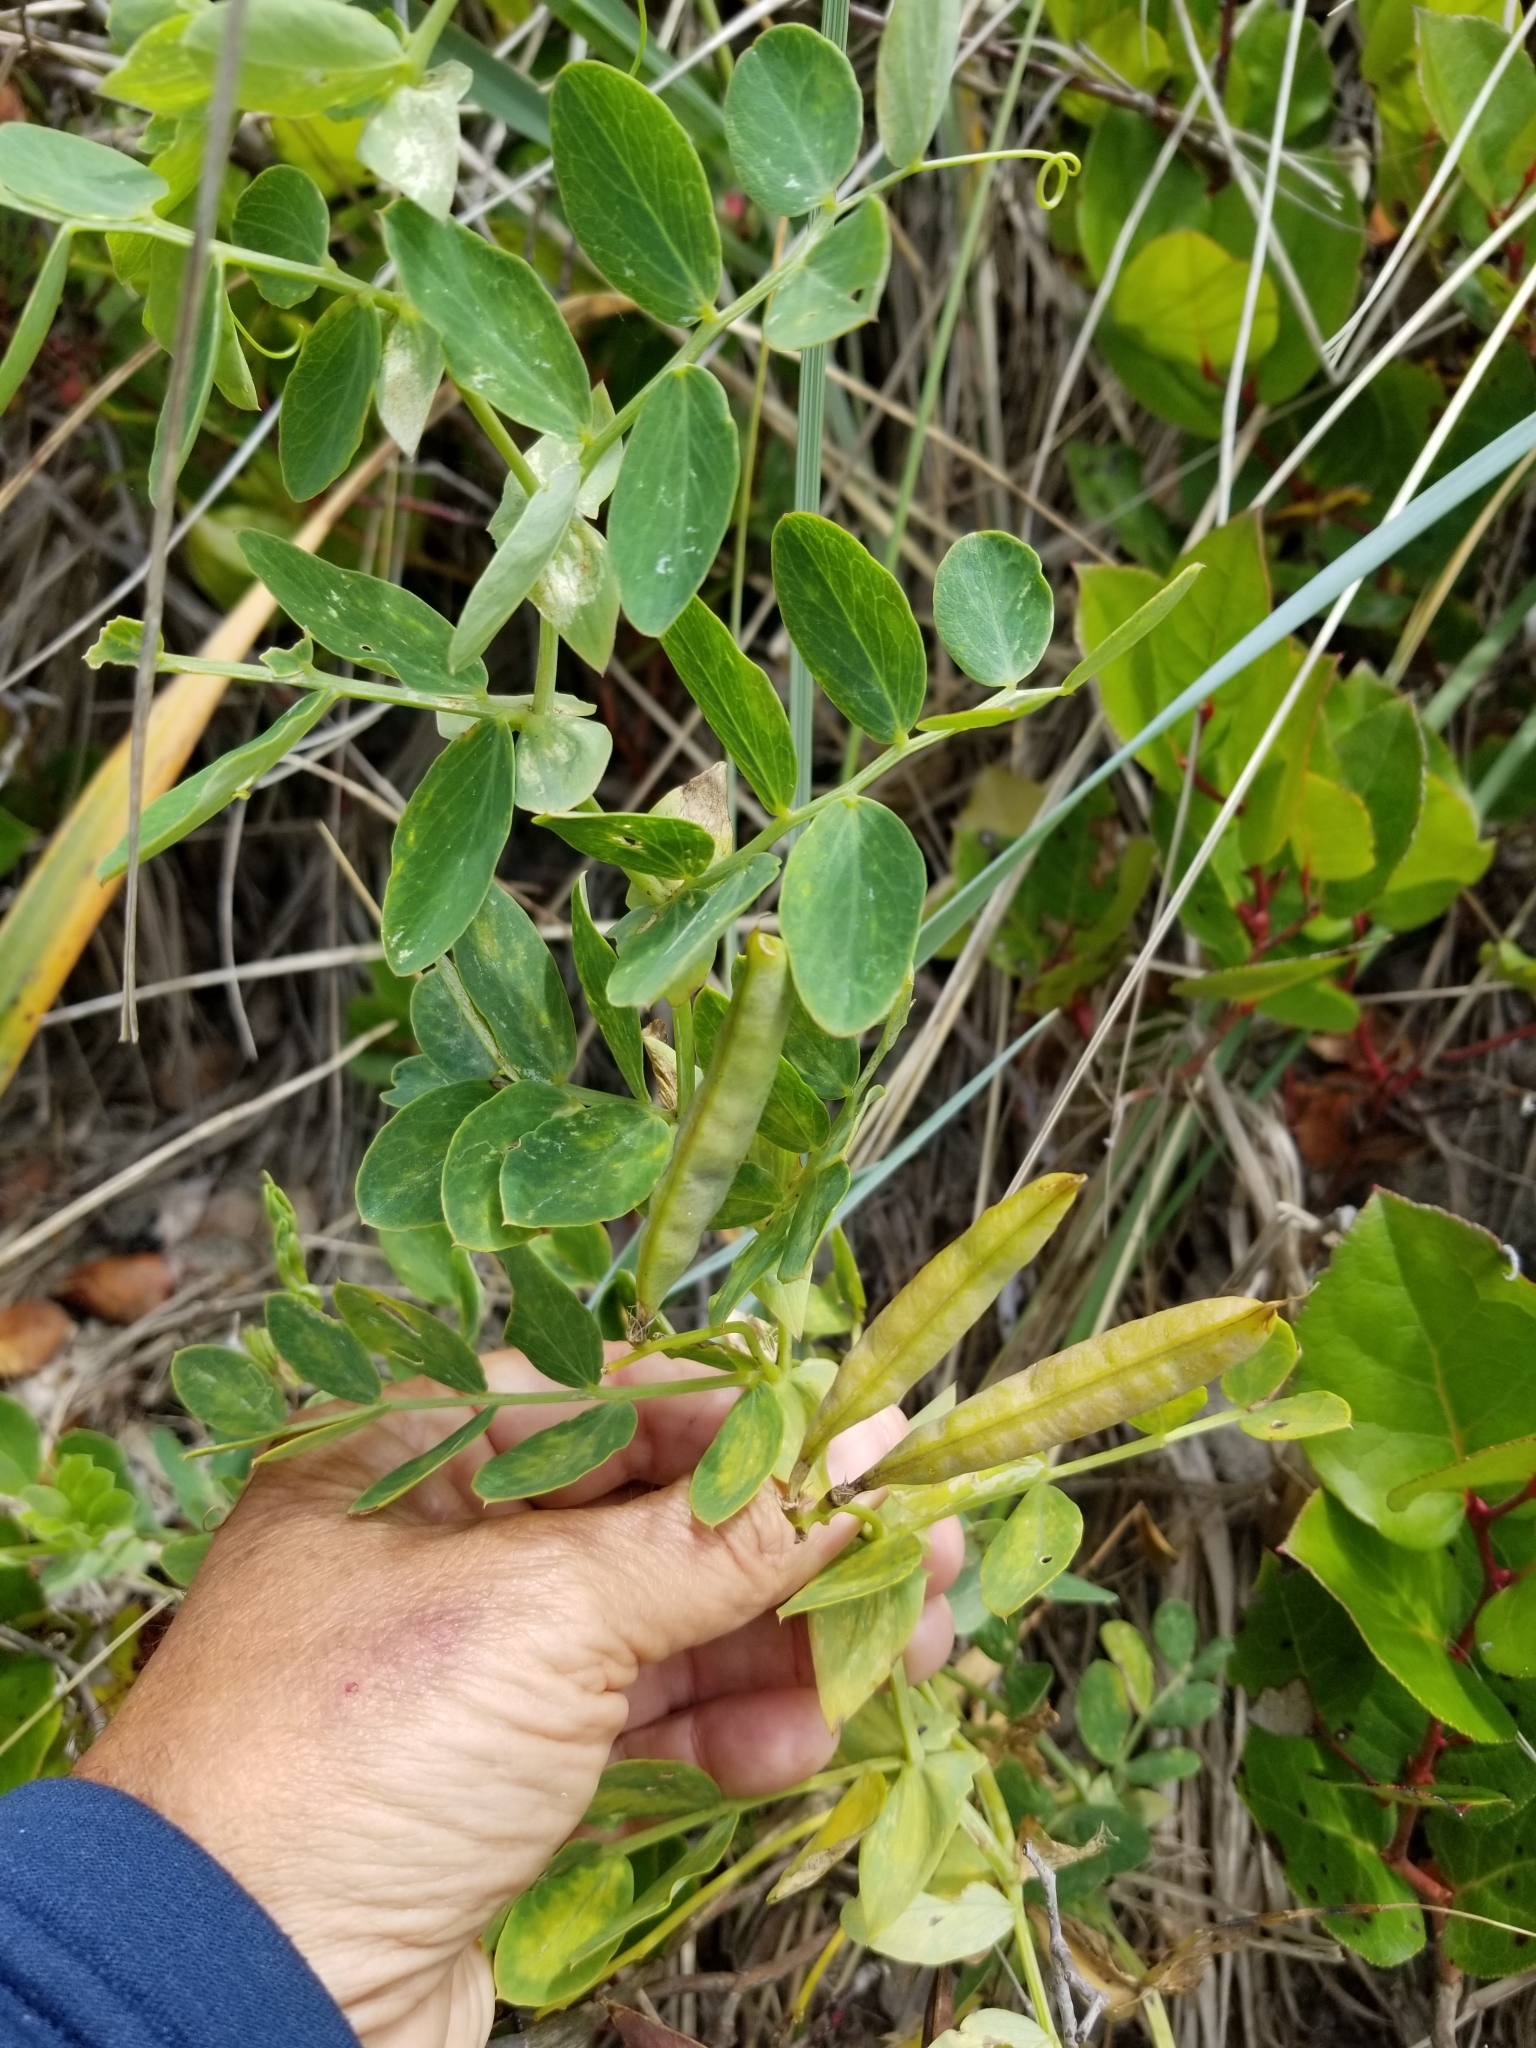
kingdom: Plantae
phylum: Tracheophyta
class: Magnoliopsida
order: Fabales
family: Fabaceae
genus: Lathyrus
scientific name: Lathyrus japonicus
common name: Sea pea
